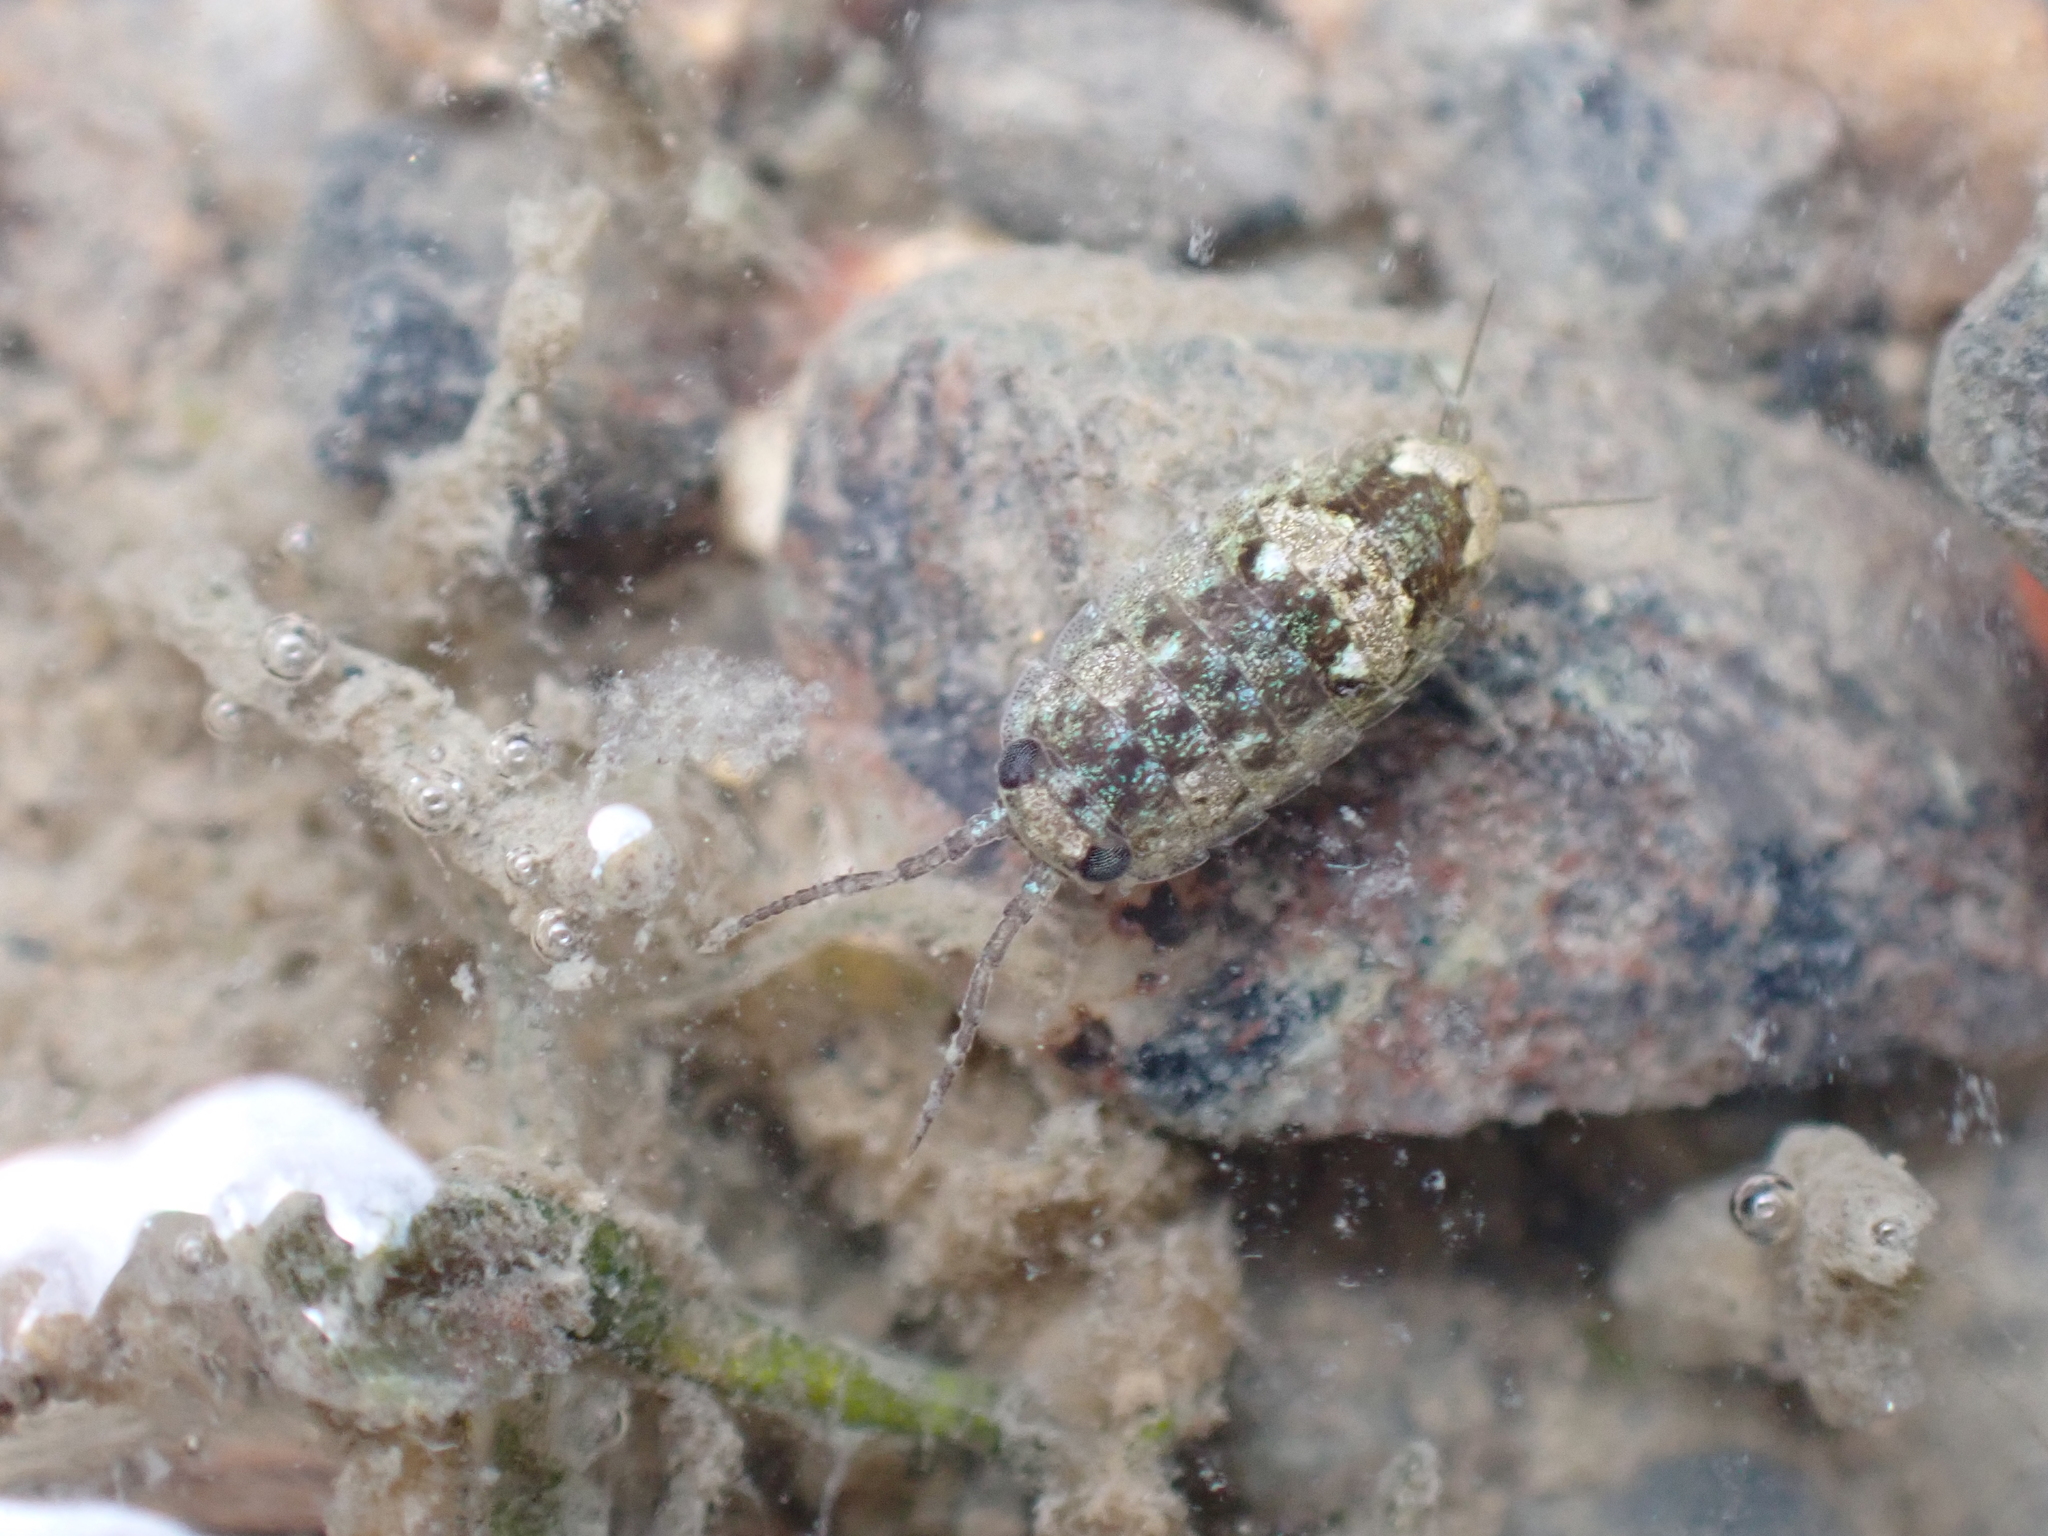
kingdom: Animalia
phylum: Arthropoda
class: Malacostraca
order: Isopoda
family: Ligiidae
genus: Ligia
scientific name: Ligia oceanica
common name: Sea slater
